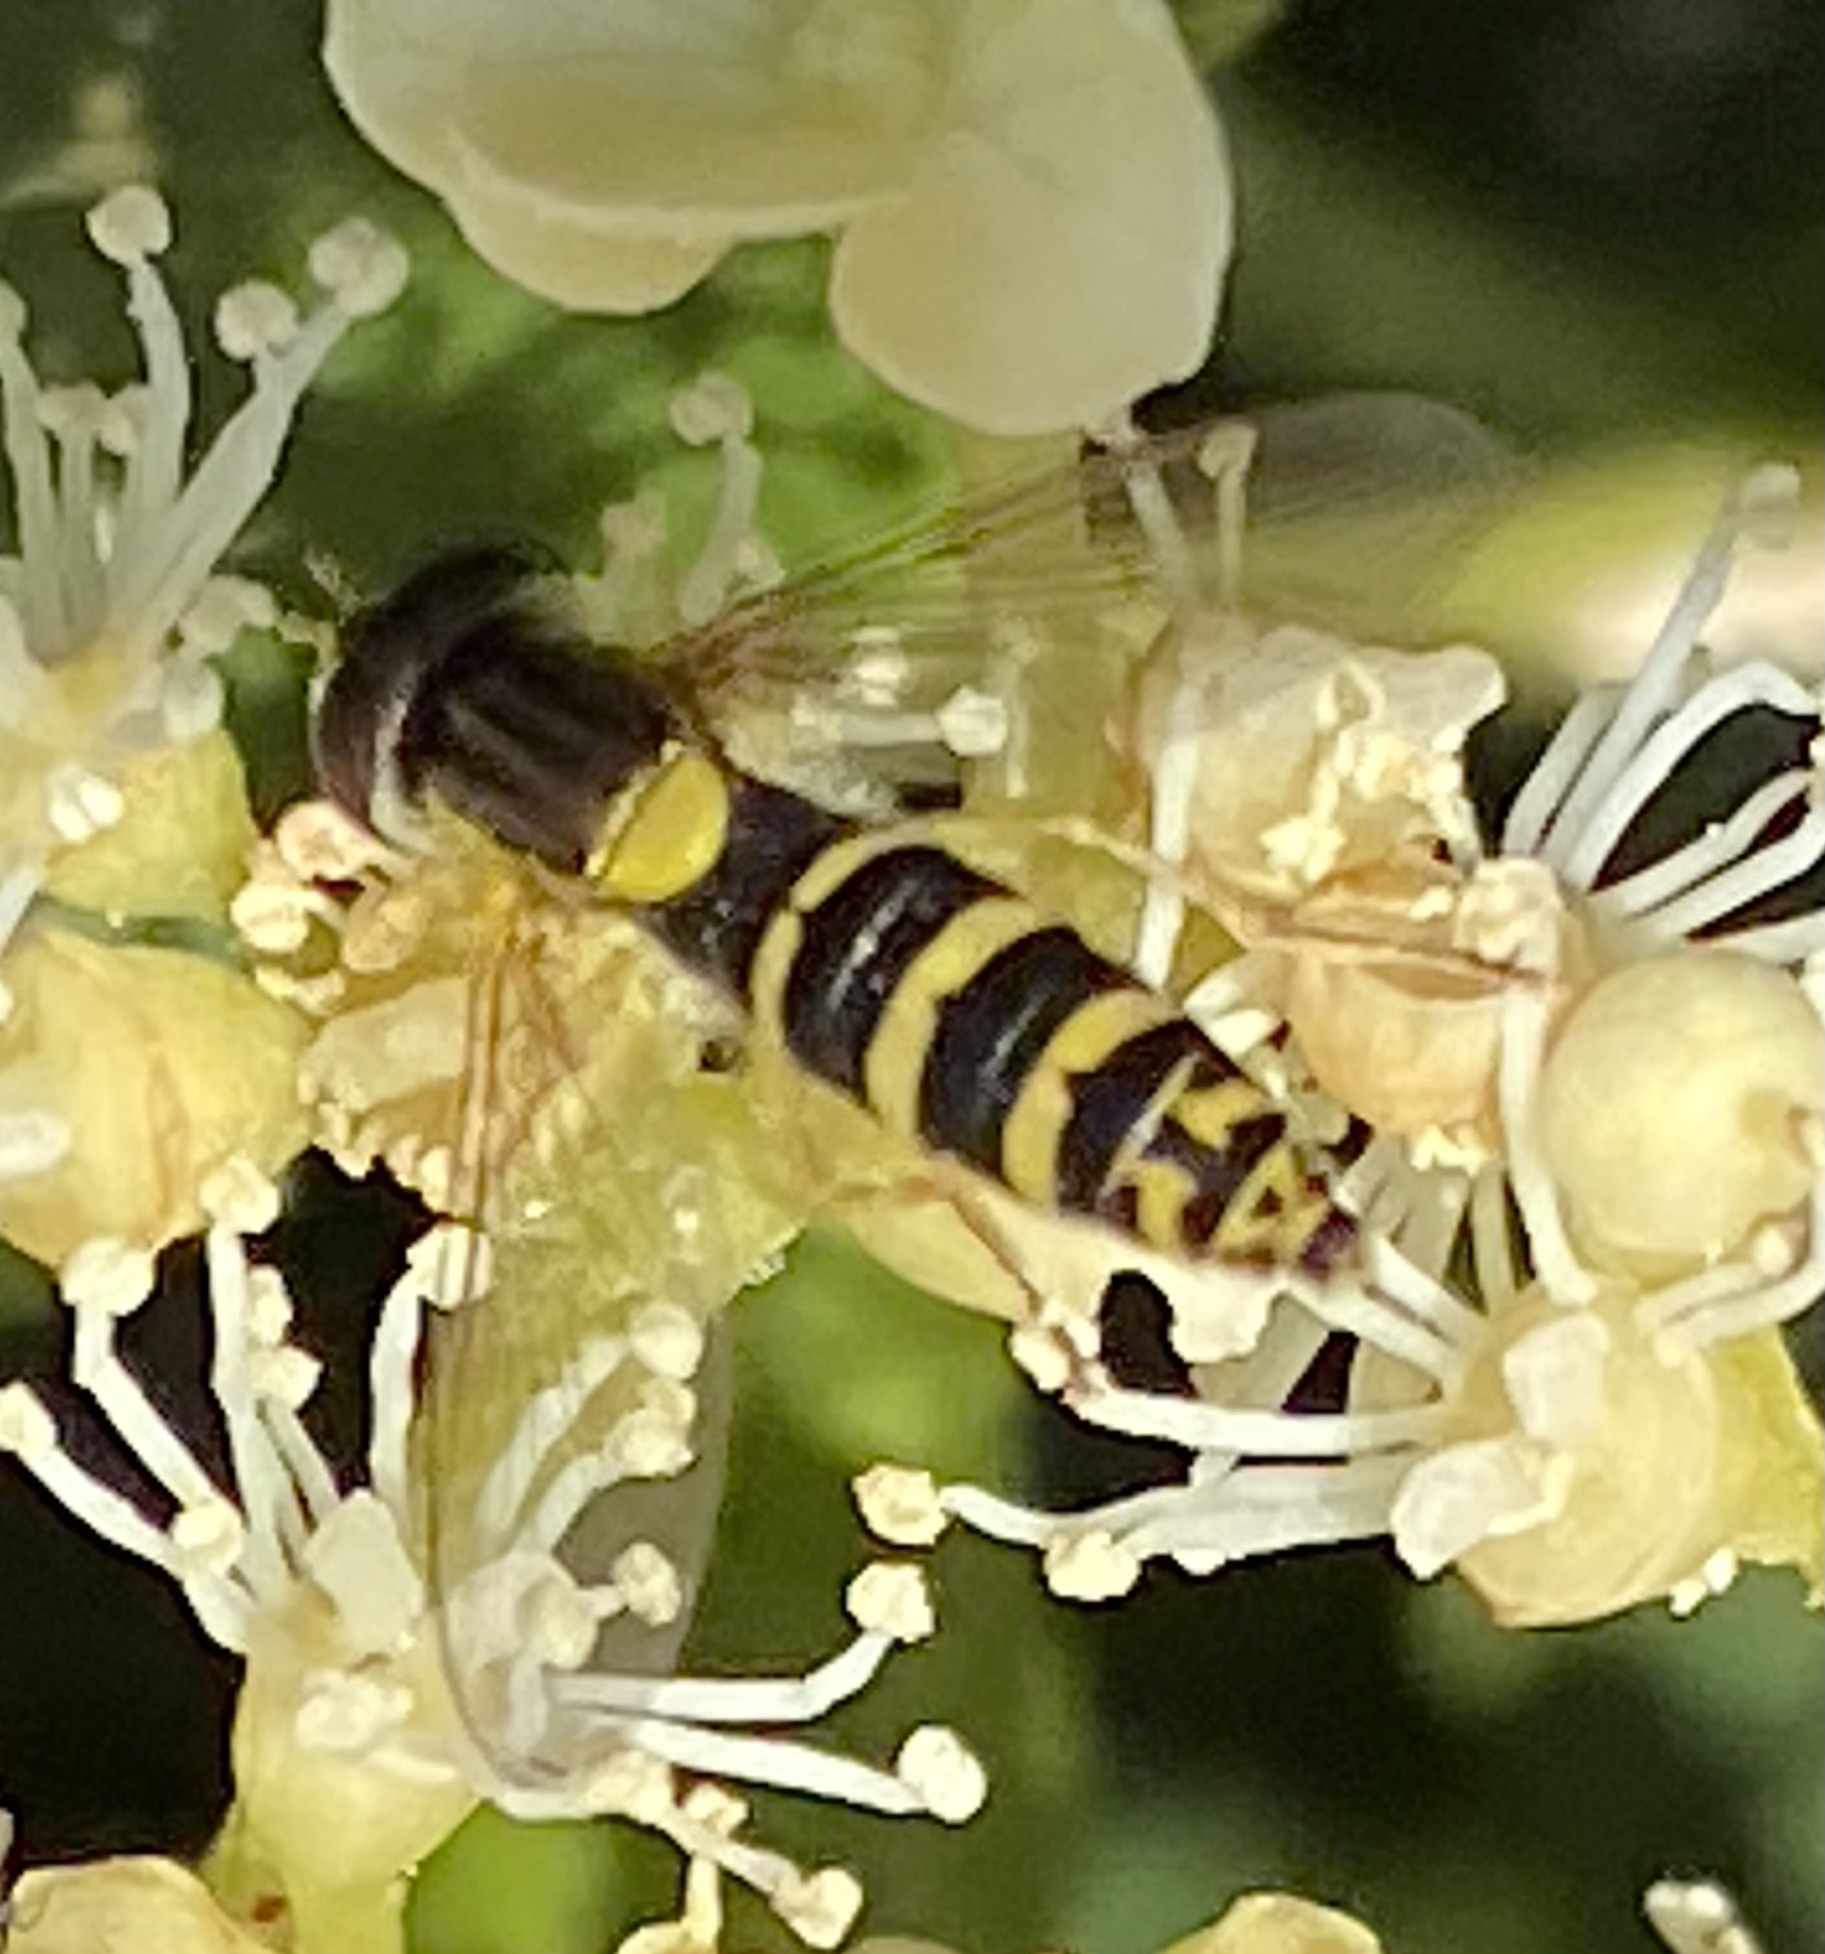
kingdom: Animalia
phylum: Arthropoda
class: Insecta
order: Diptera
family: Syrphidae
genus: Sphaerophoria
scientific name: Sphaerophoria
